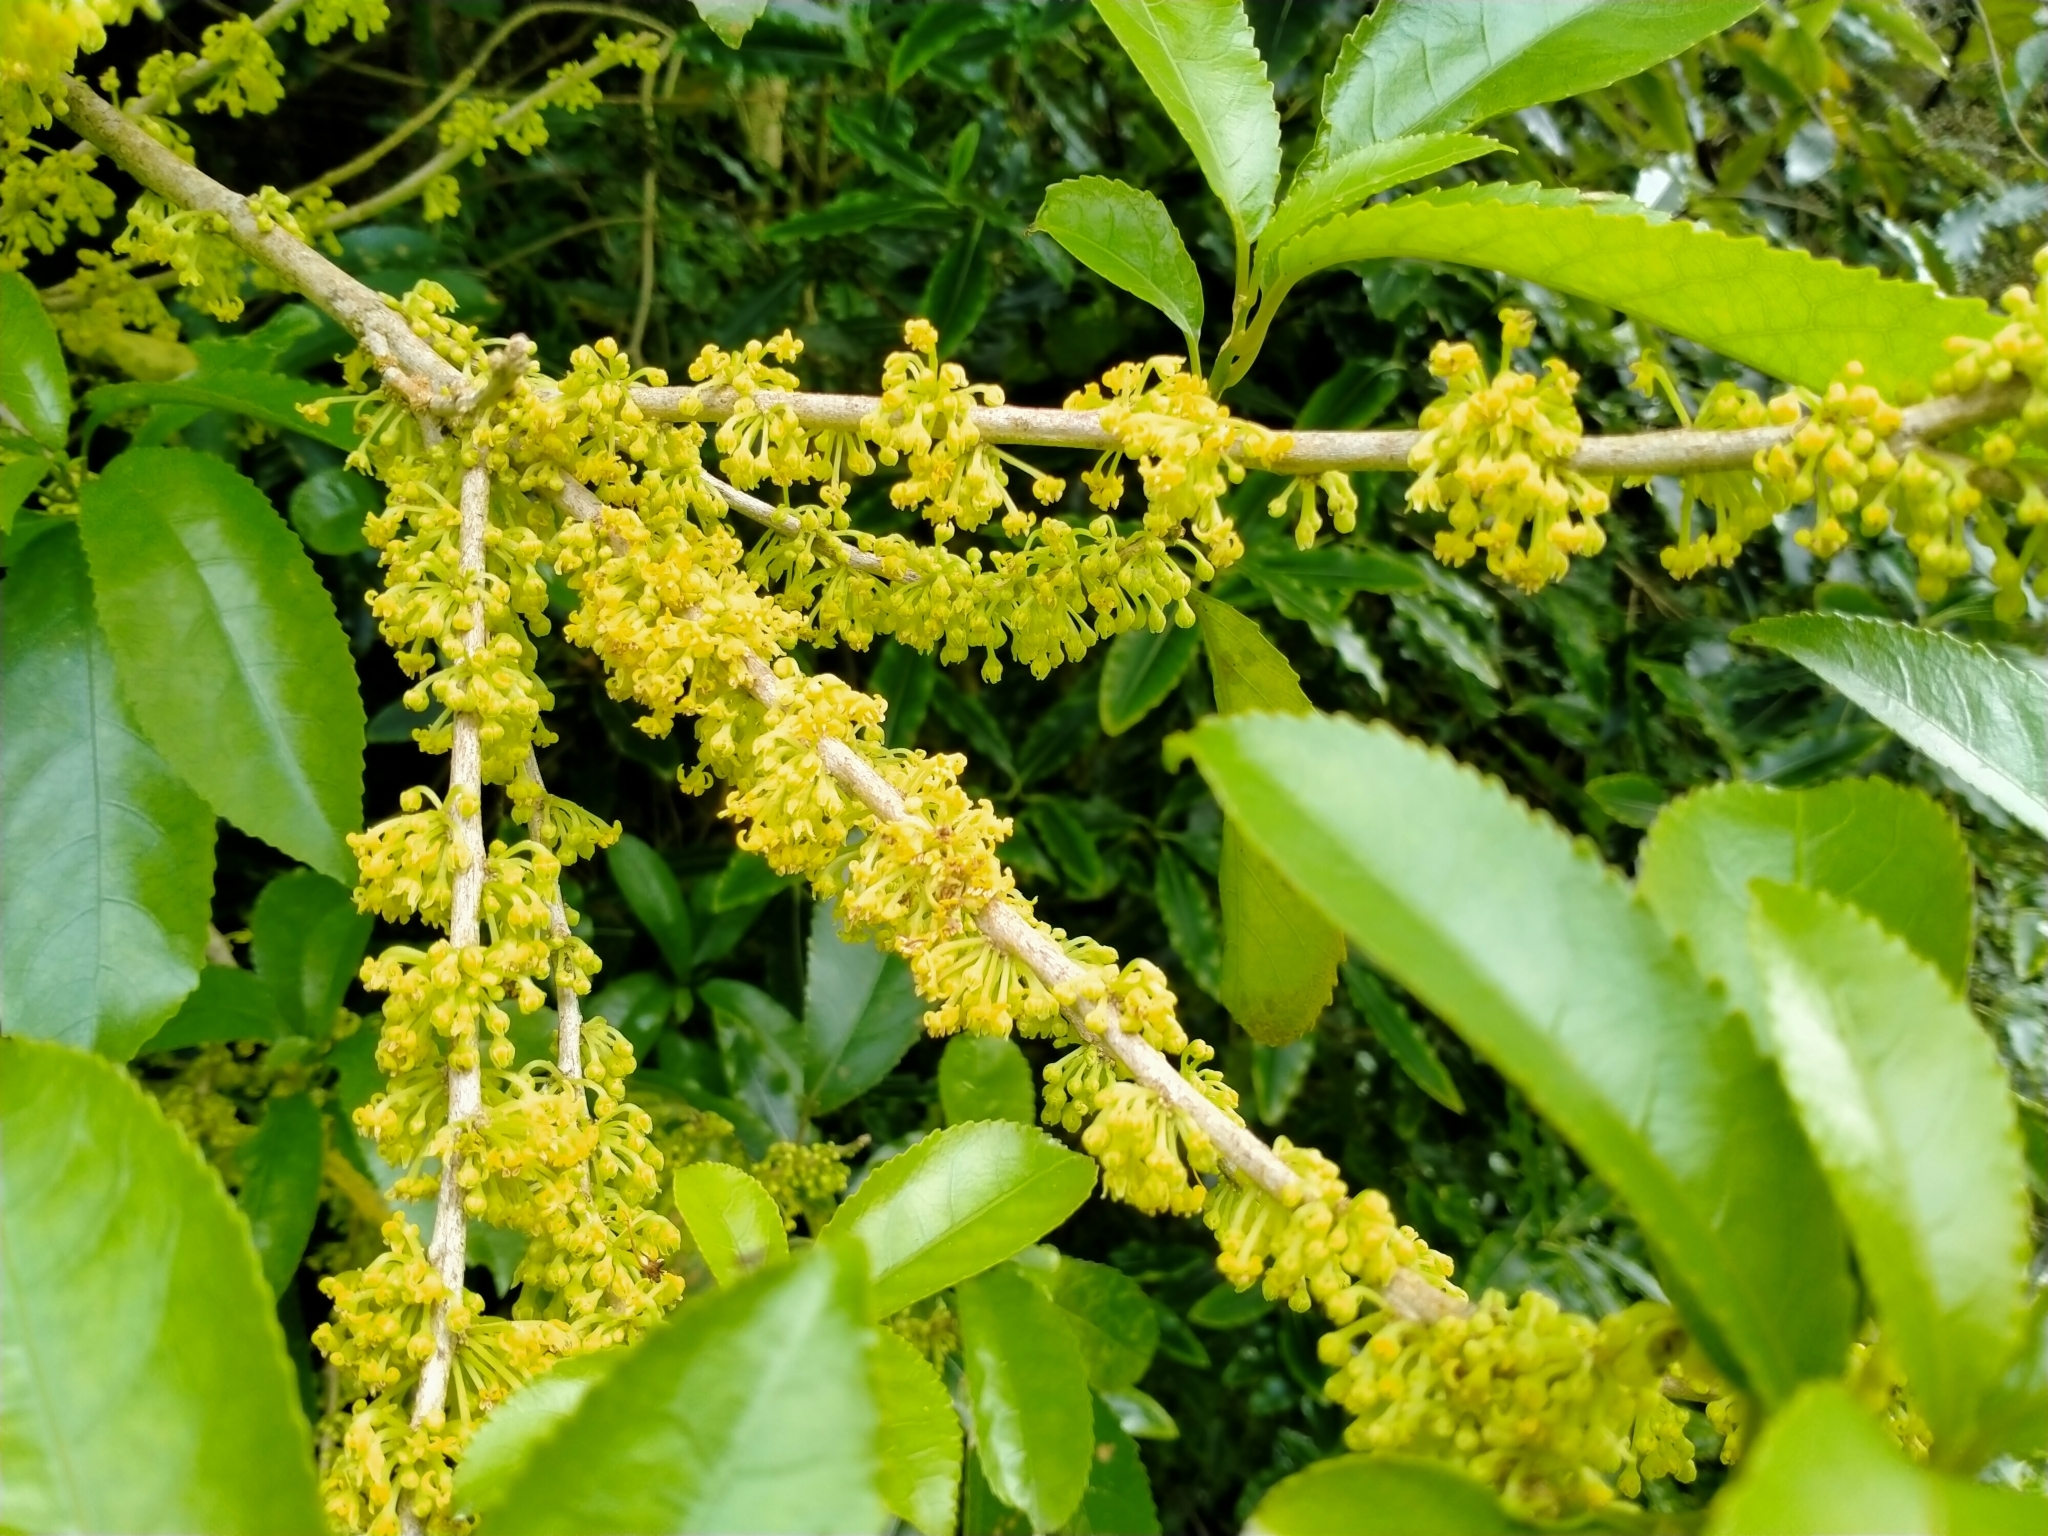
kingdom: Plantae
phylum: Tracheophyta
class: Magnoliopsida
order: Malpighiales
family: Violaceae
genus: Melicytus
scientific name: Melicytus ramiflorus
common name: Mahoe
